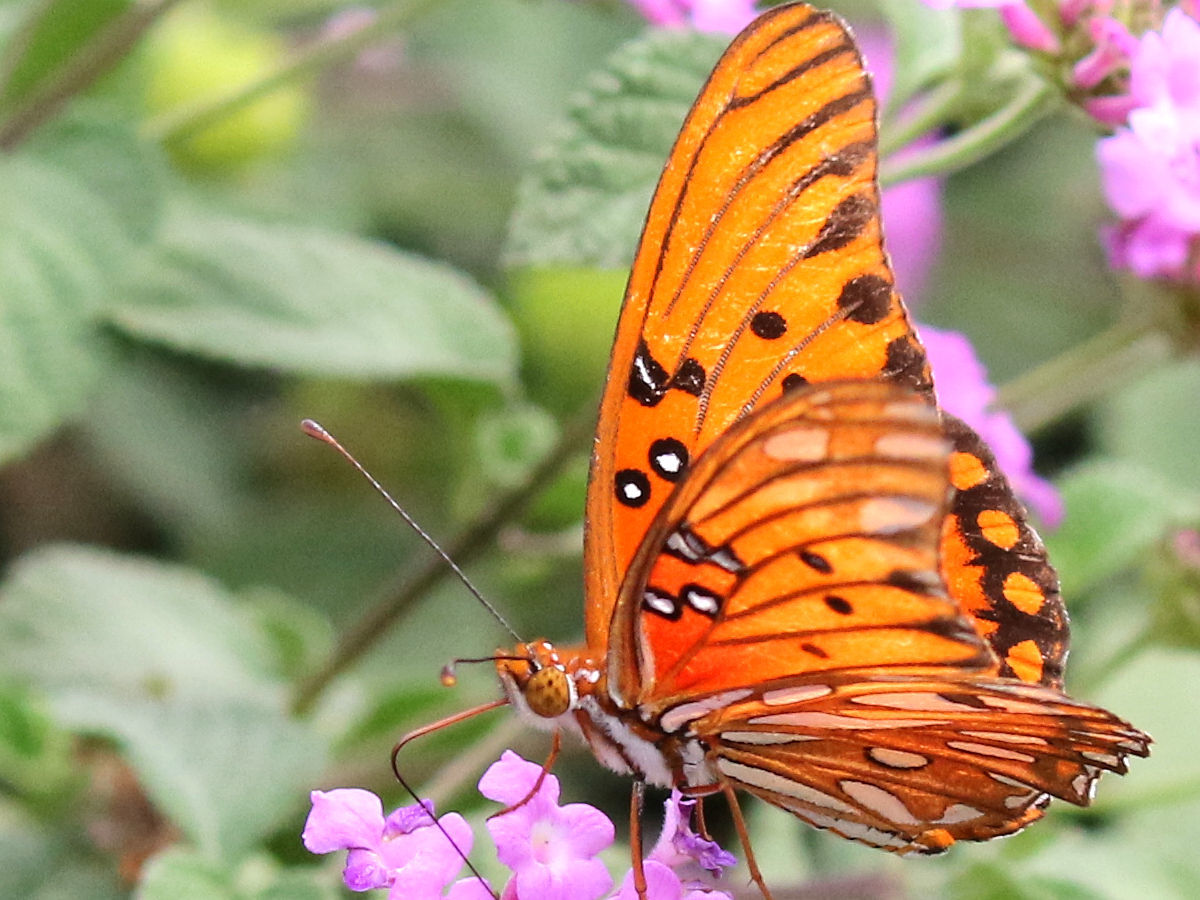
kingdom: Animalia
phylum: Arthropoda
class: Insecta
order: Lepidoptera
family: Nymphalidae
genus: Dione
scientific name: Dione vanillae
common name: Gulf fritillary
